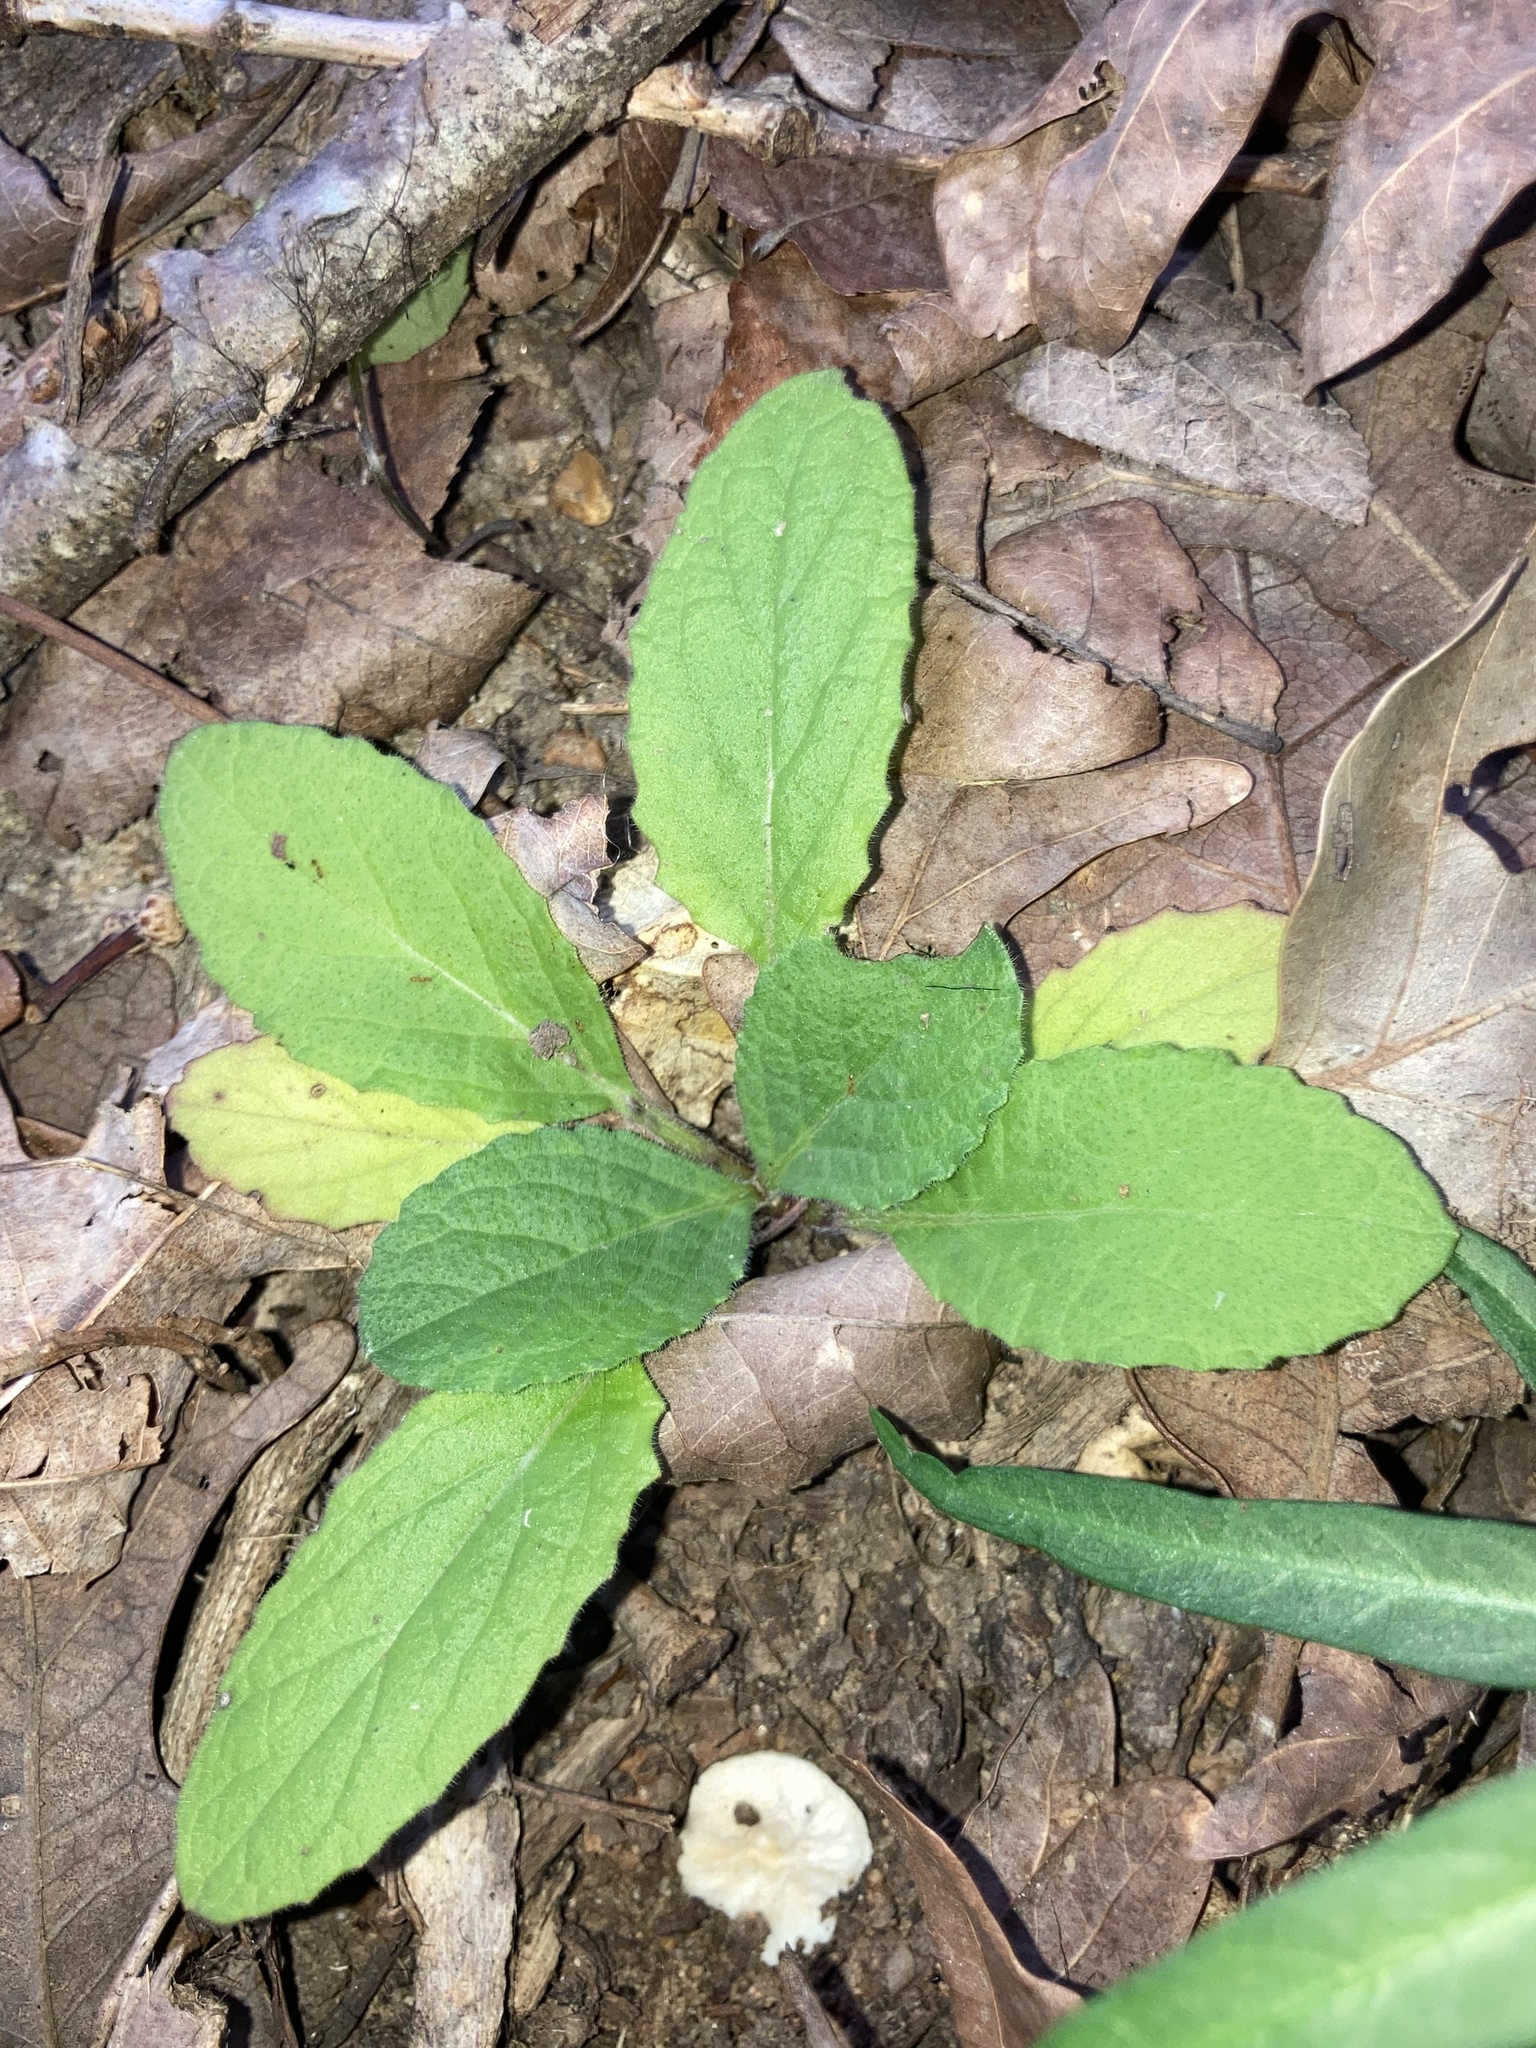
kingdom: Plantae
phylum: Tracheophyta
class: Magnoliopsida
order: Lamiales
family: Lamiaceae
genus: Salvia
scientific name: Salvia lyrata
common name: Cancerweed
